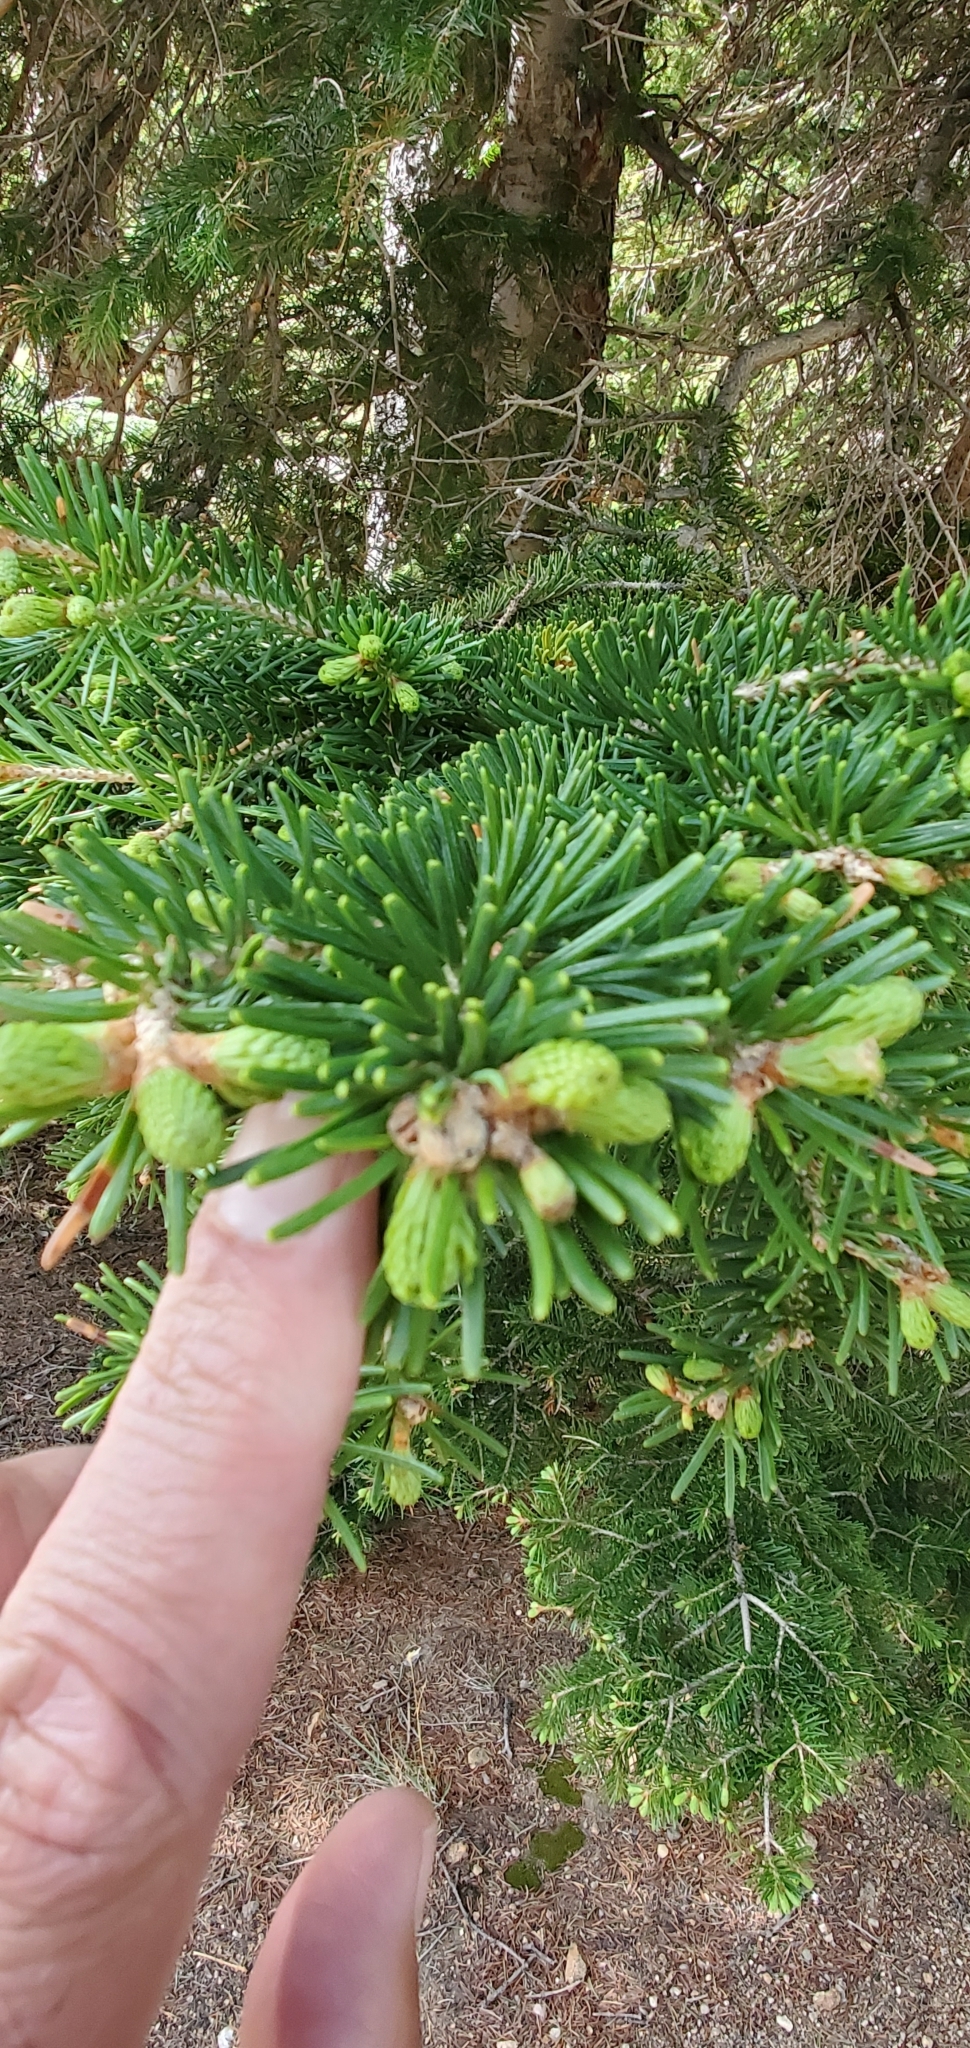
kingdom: Plantae
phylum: Tracheophyta
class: Pinopsida
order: Pinales
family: Pinaceae
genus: Abies
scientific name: Abies lasiocarpa
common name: Subalpine fir
